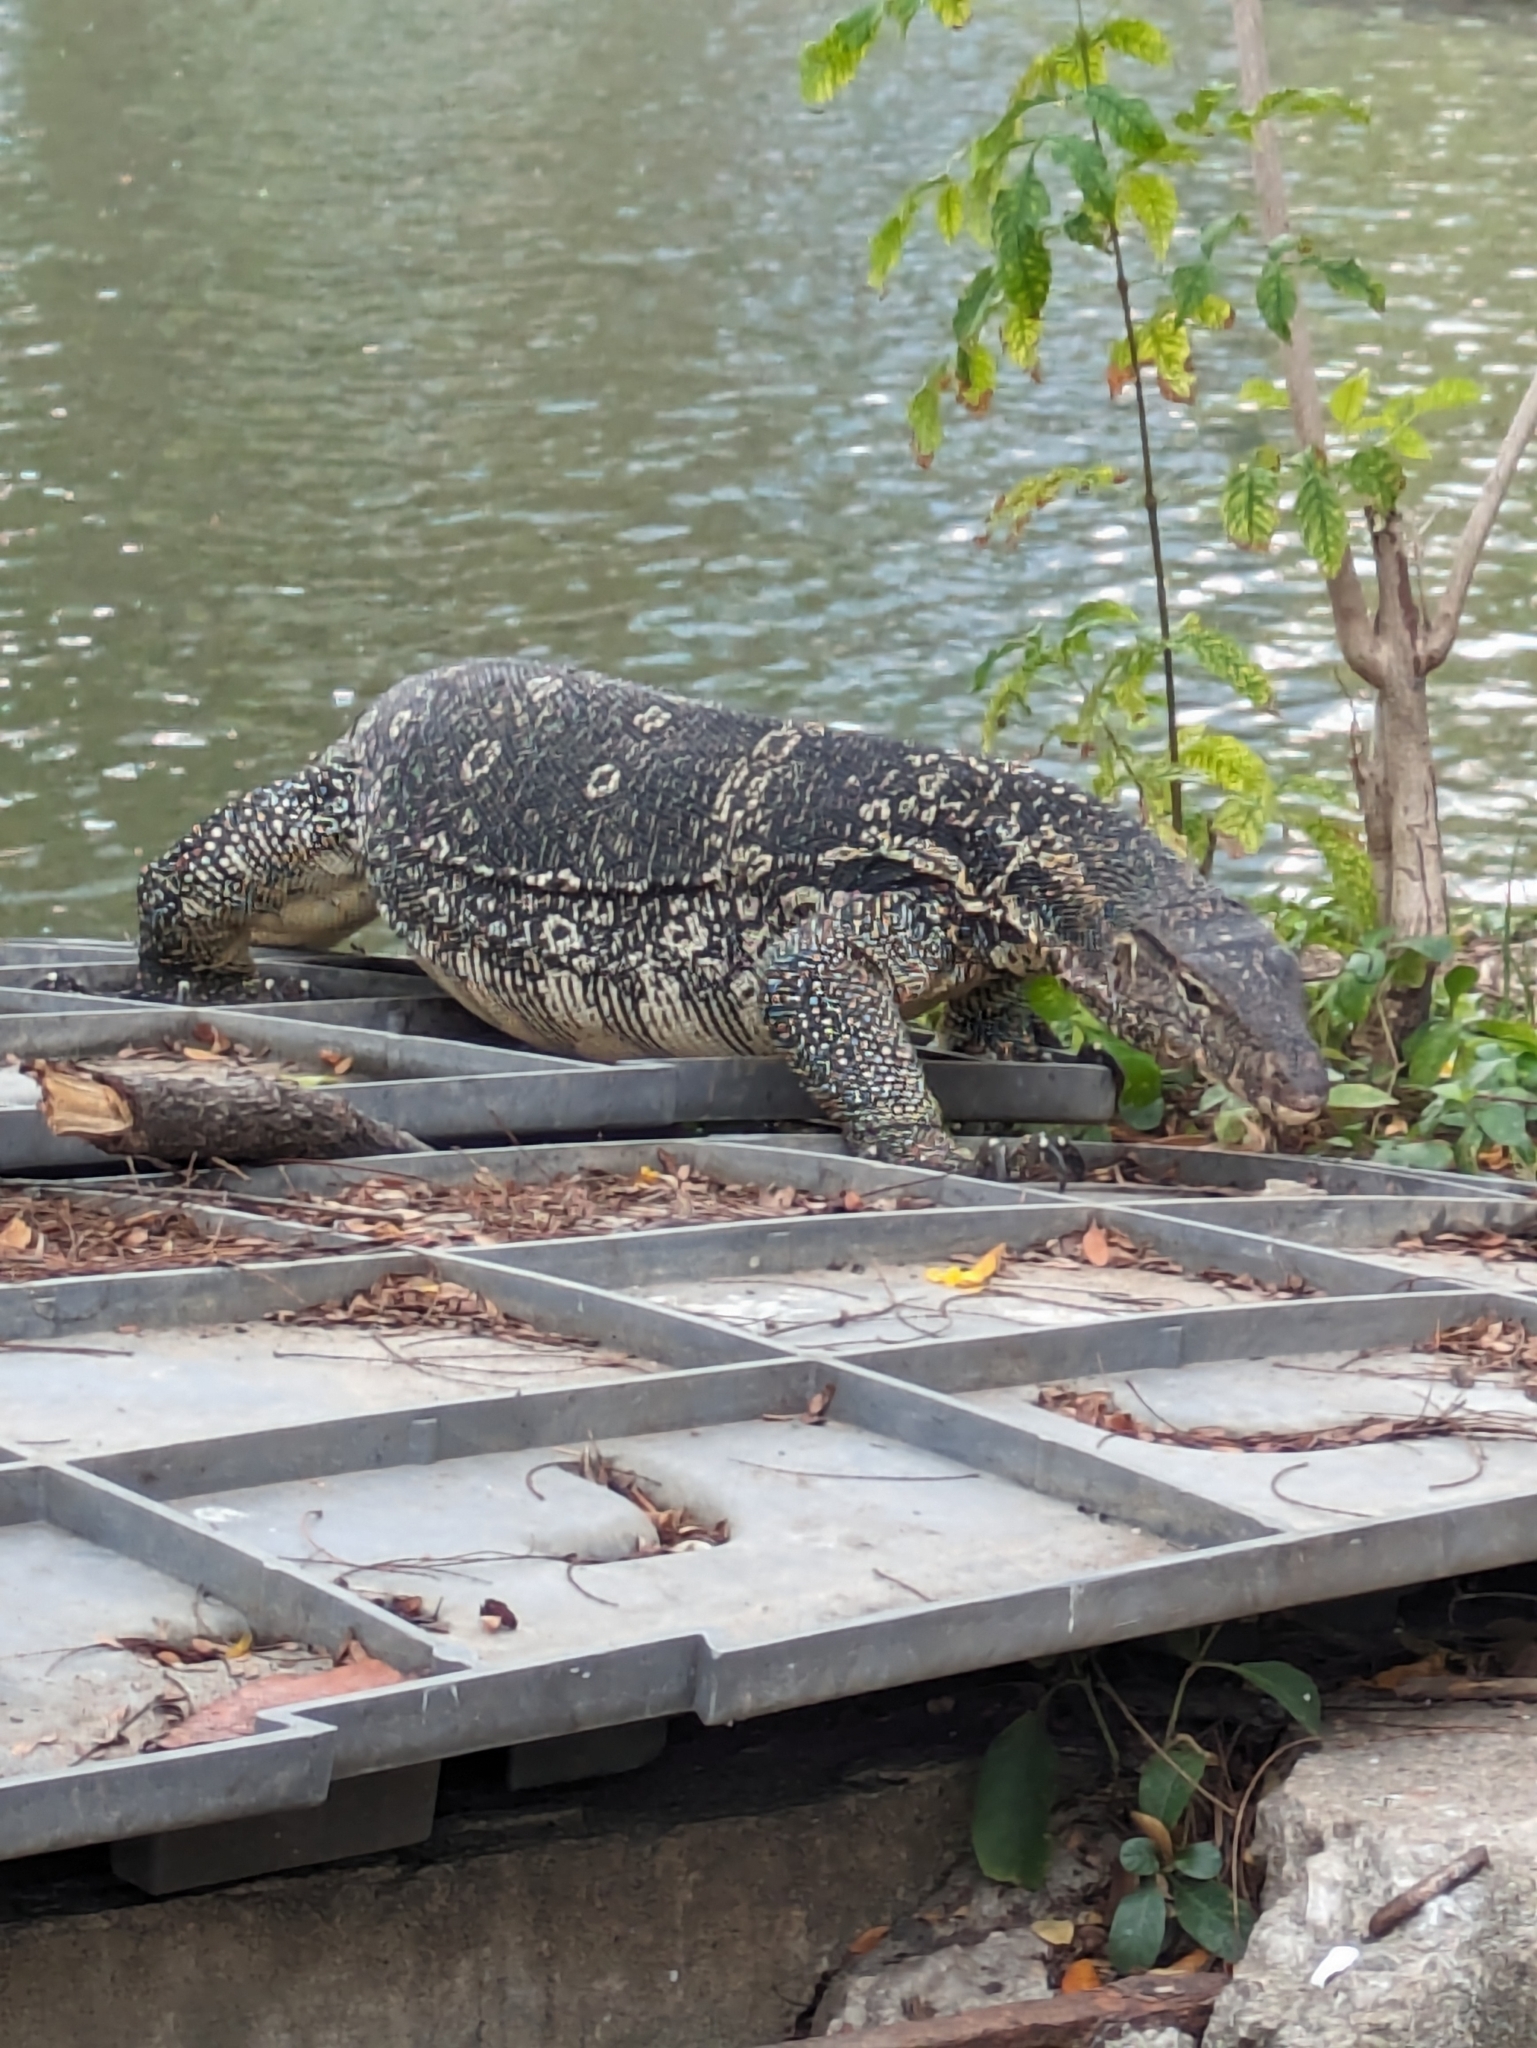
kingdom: Animalia
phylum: Chordata
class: Squamata
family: Varanidae
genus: Varanus
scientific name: Varanus salvator
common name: Common water monitor
